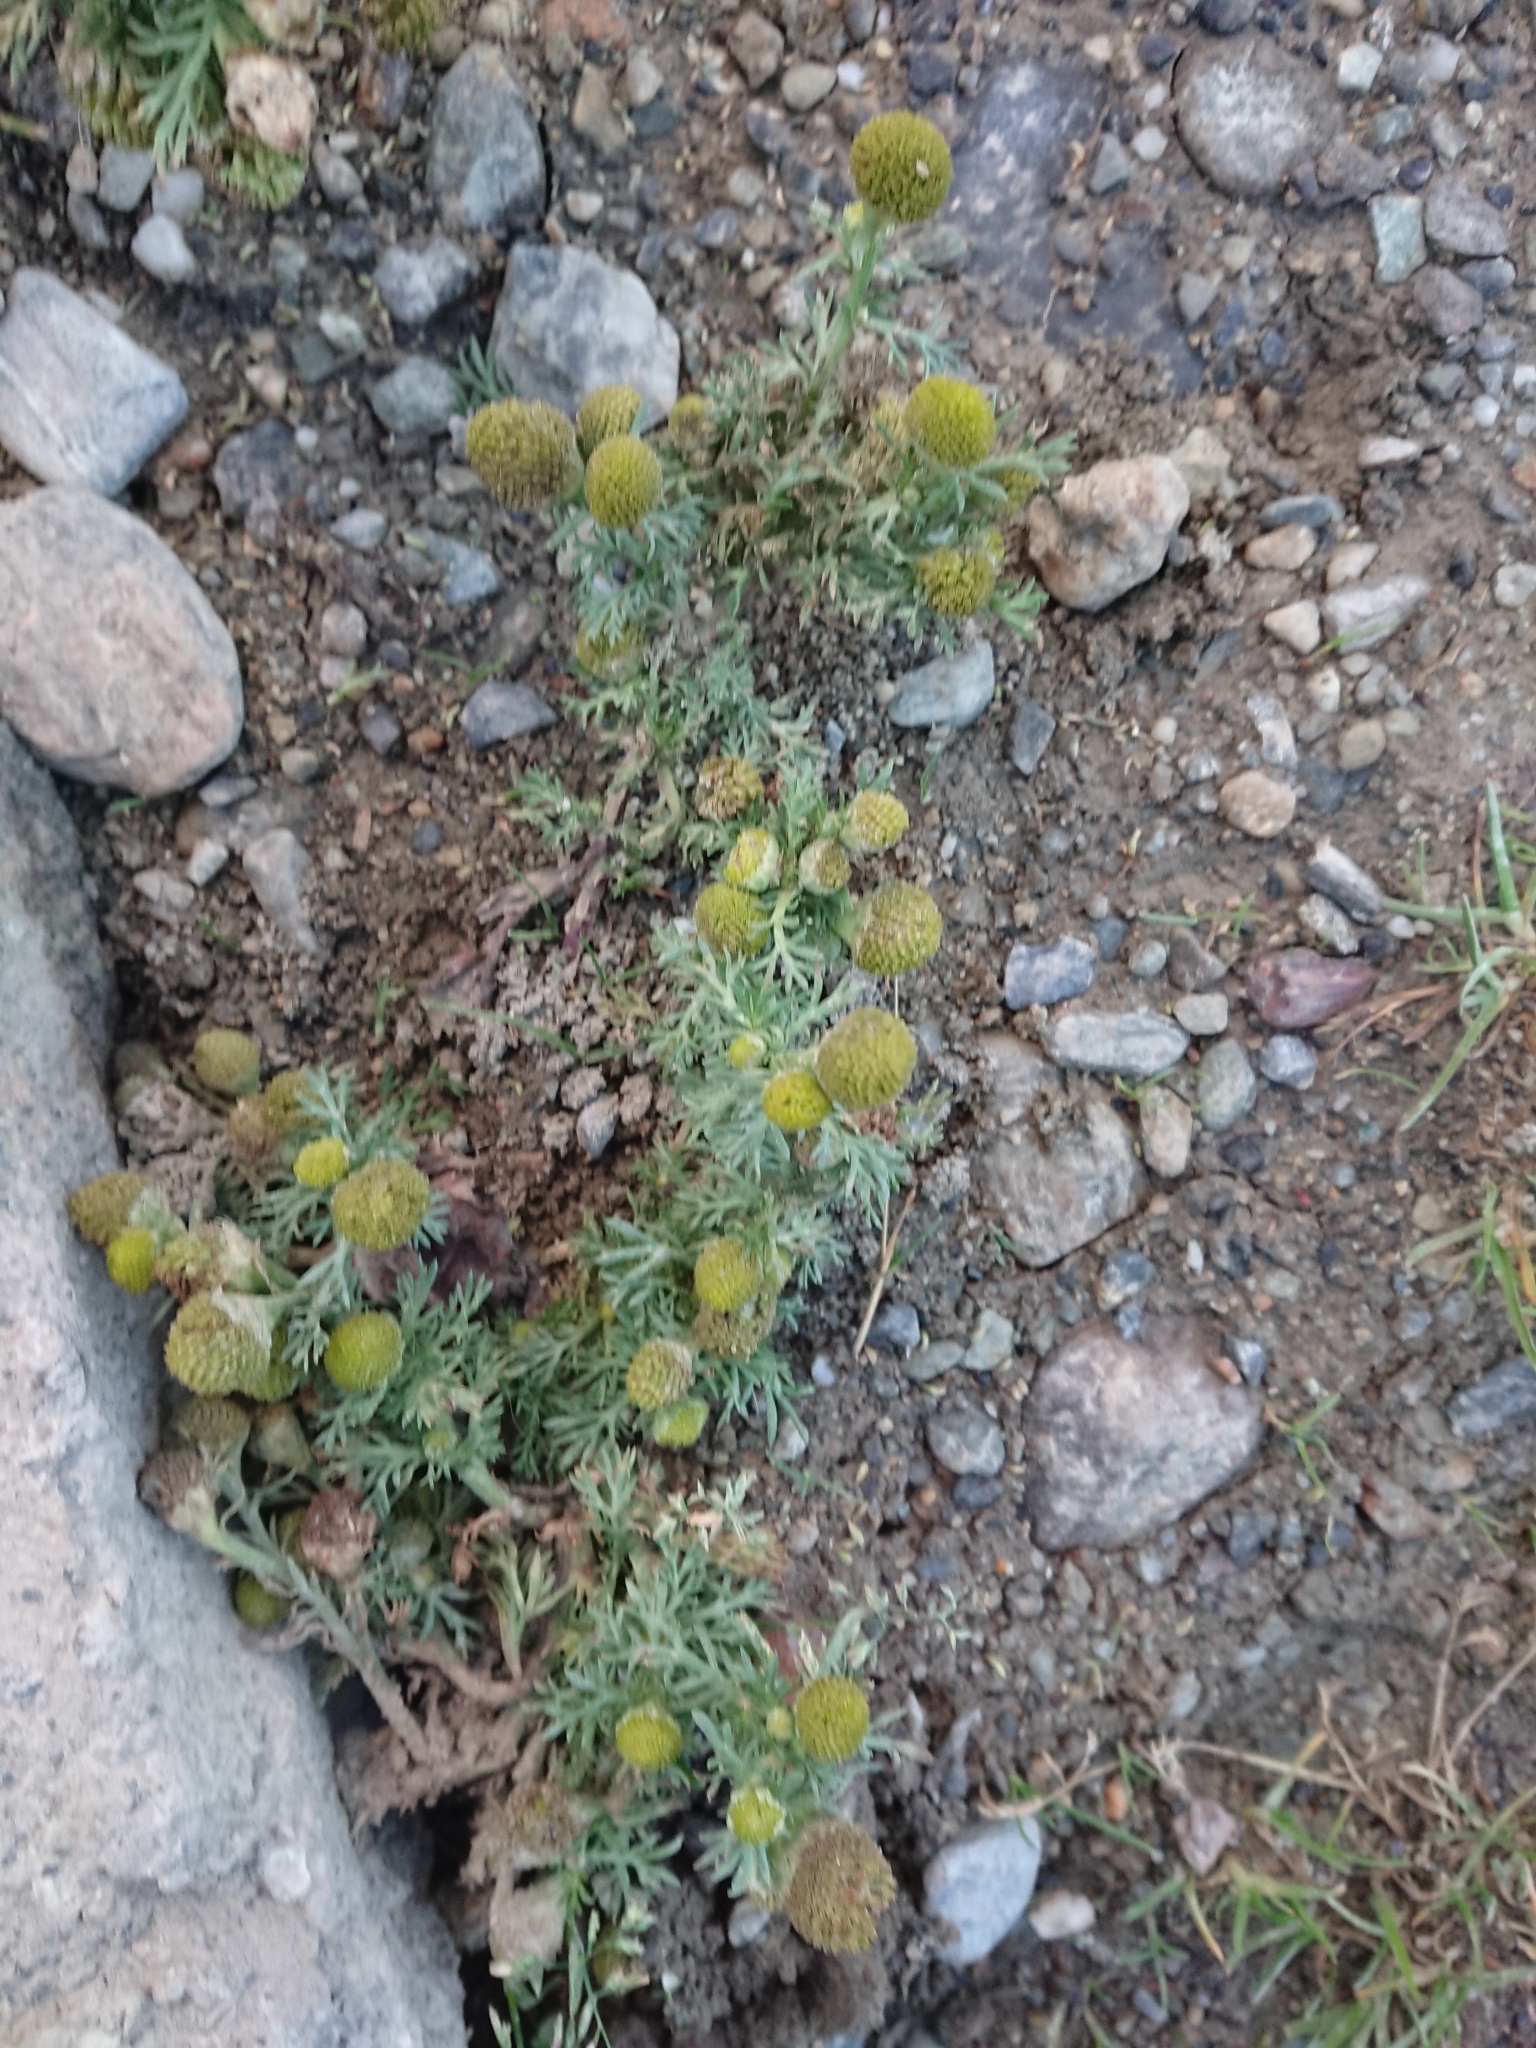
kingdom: Plantae
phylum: Tracheophyta
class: Magnoliopsida
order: Asterales
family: Asteraceae
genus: Matricaria
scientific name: Matricaria discoidea
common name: Disc mayweed
